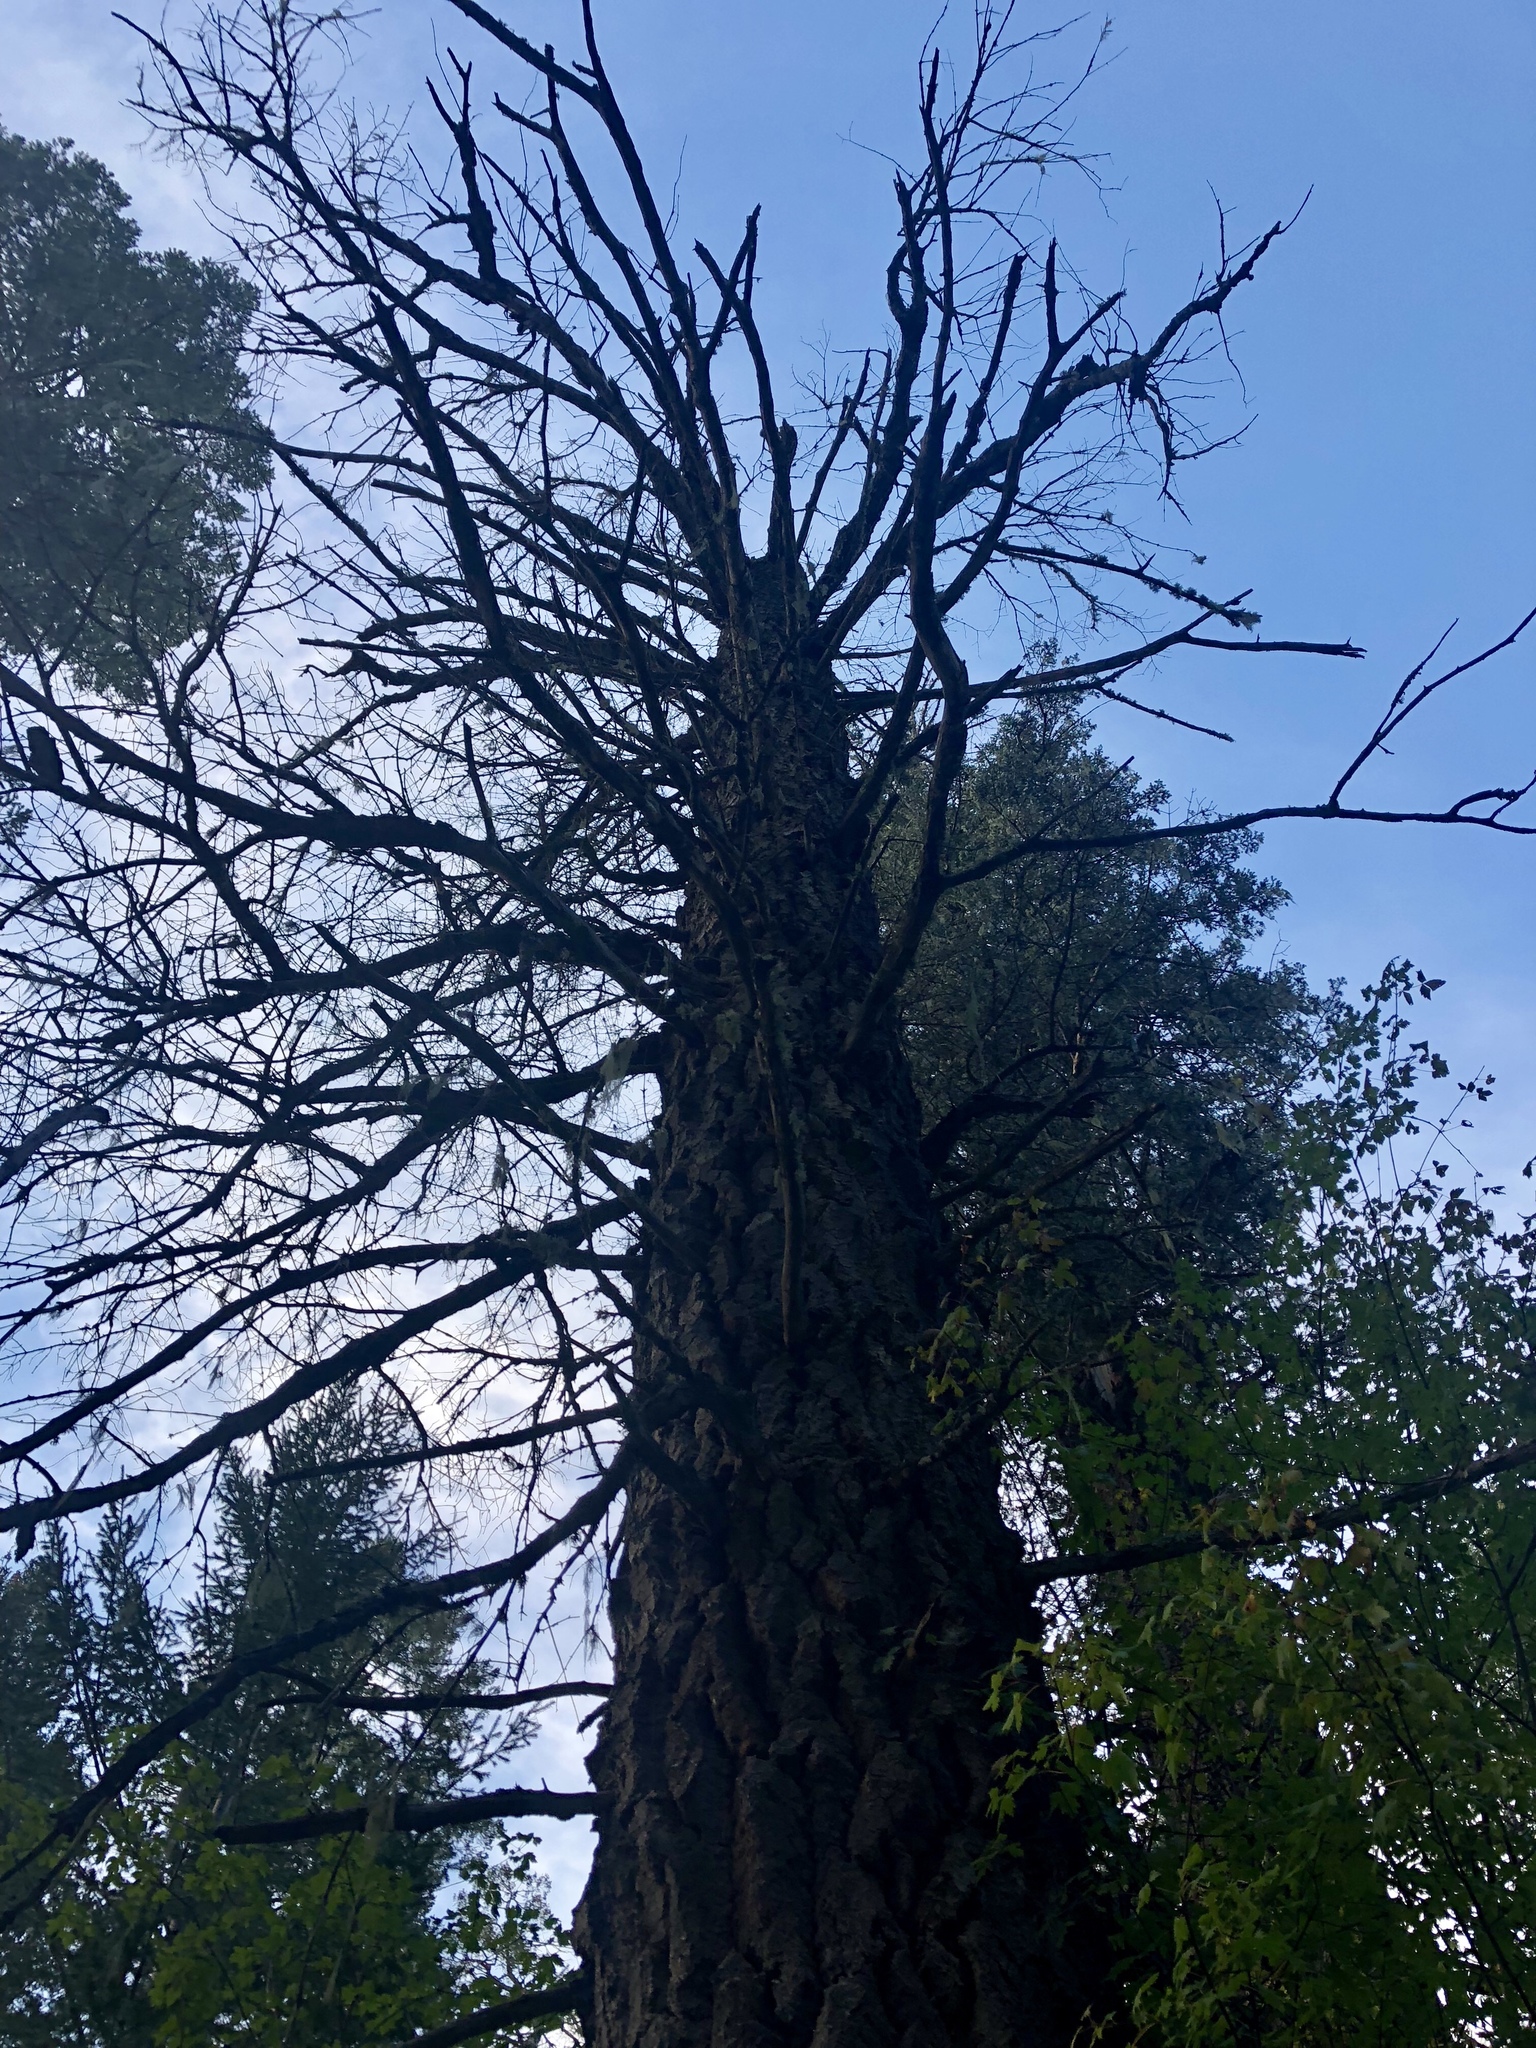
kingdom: Plantae
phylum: Tracheophyta
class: Pinopsida
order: Pinales
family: Pinaceae
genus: Pseudotsuga
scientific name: Pseudotsuga menziesii
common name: Douglas fir
